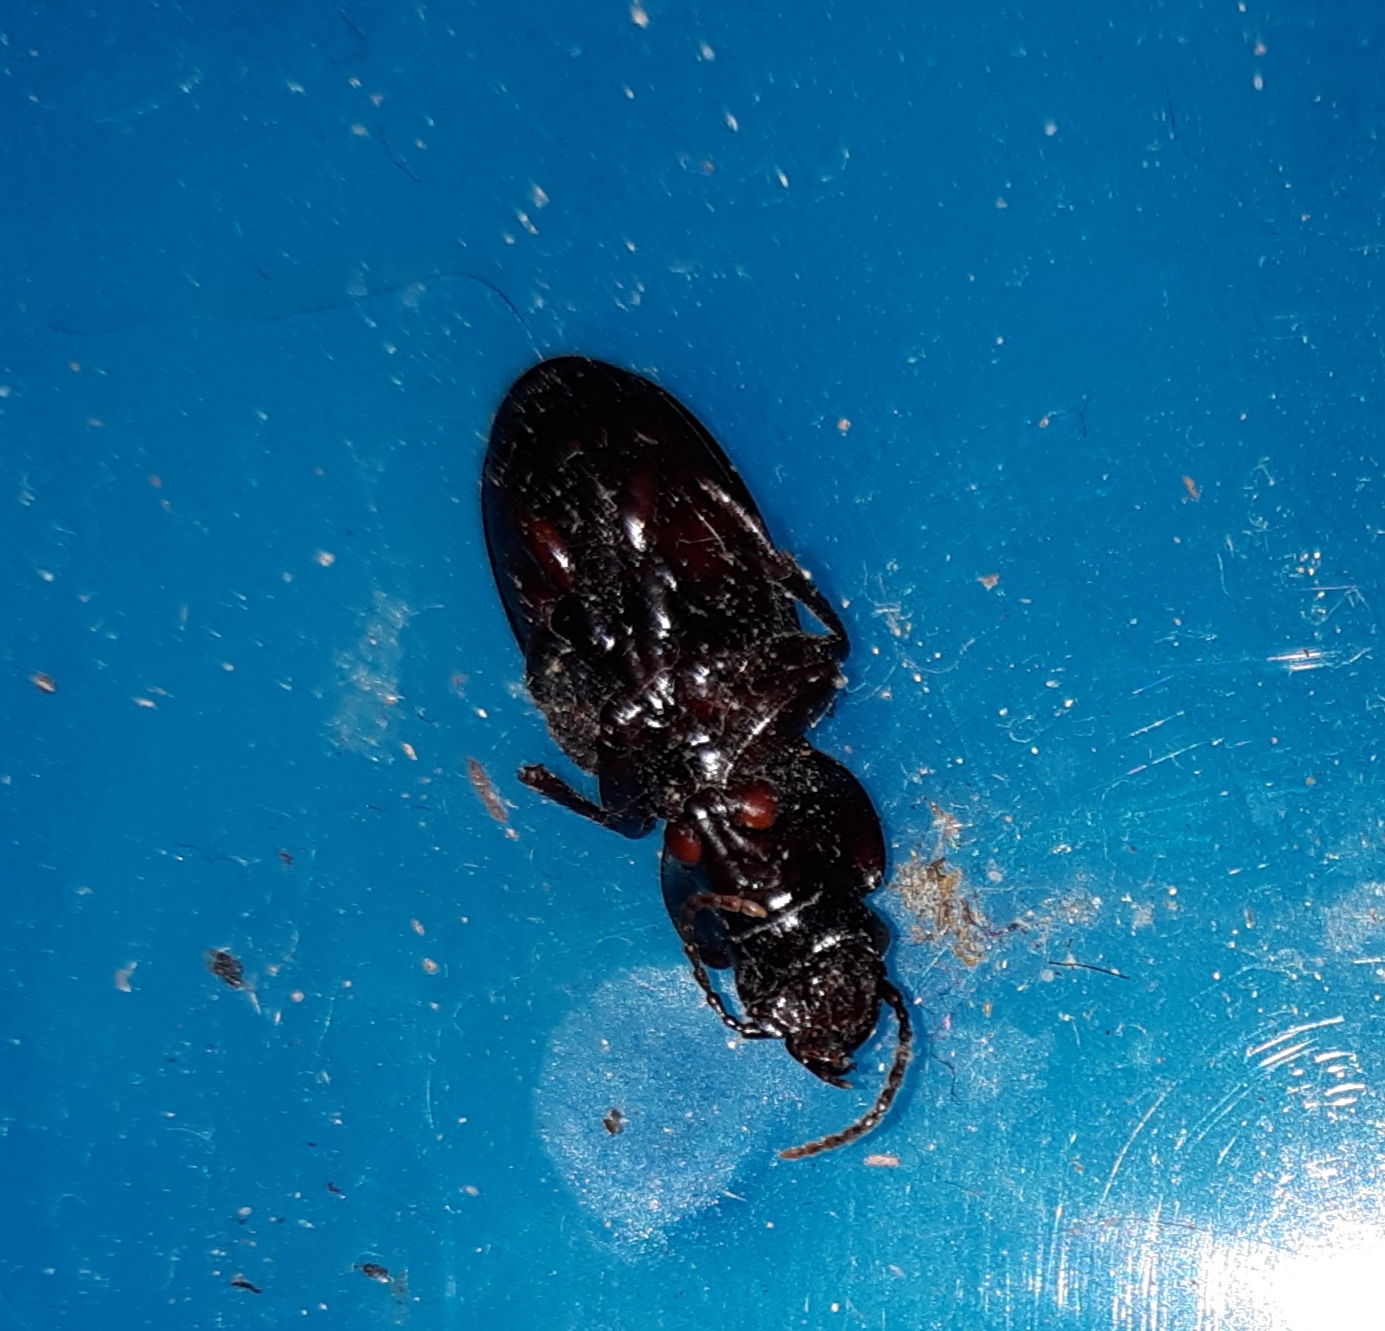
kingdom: Animalia
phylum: Arthropoda
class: Insecta
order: Coleoptera
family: Carabidae
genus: Cyclotrachelus
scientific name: Cyclotrachelus sodalis
